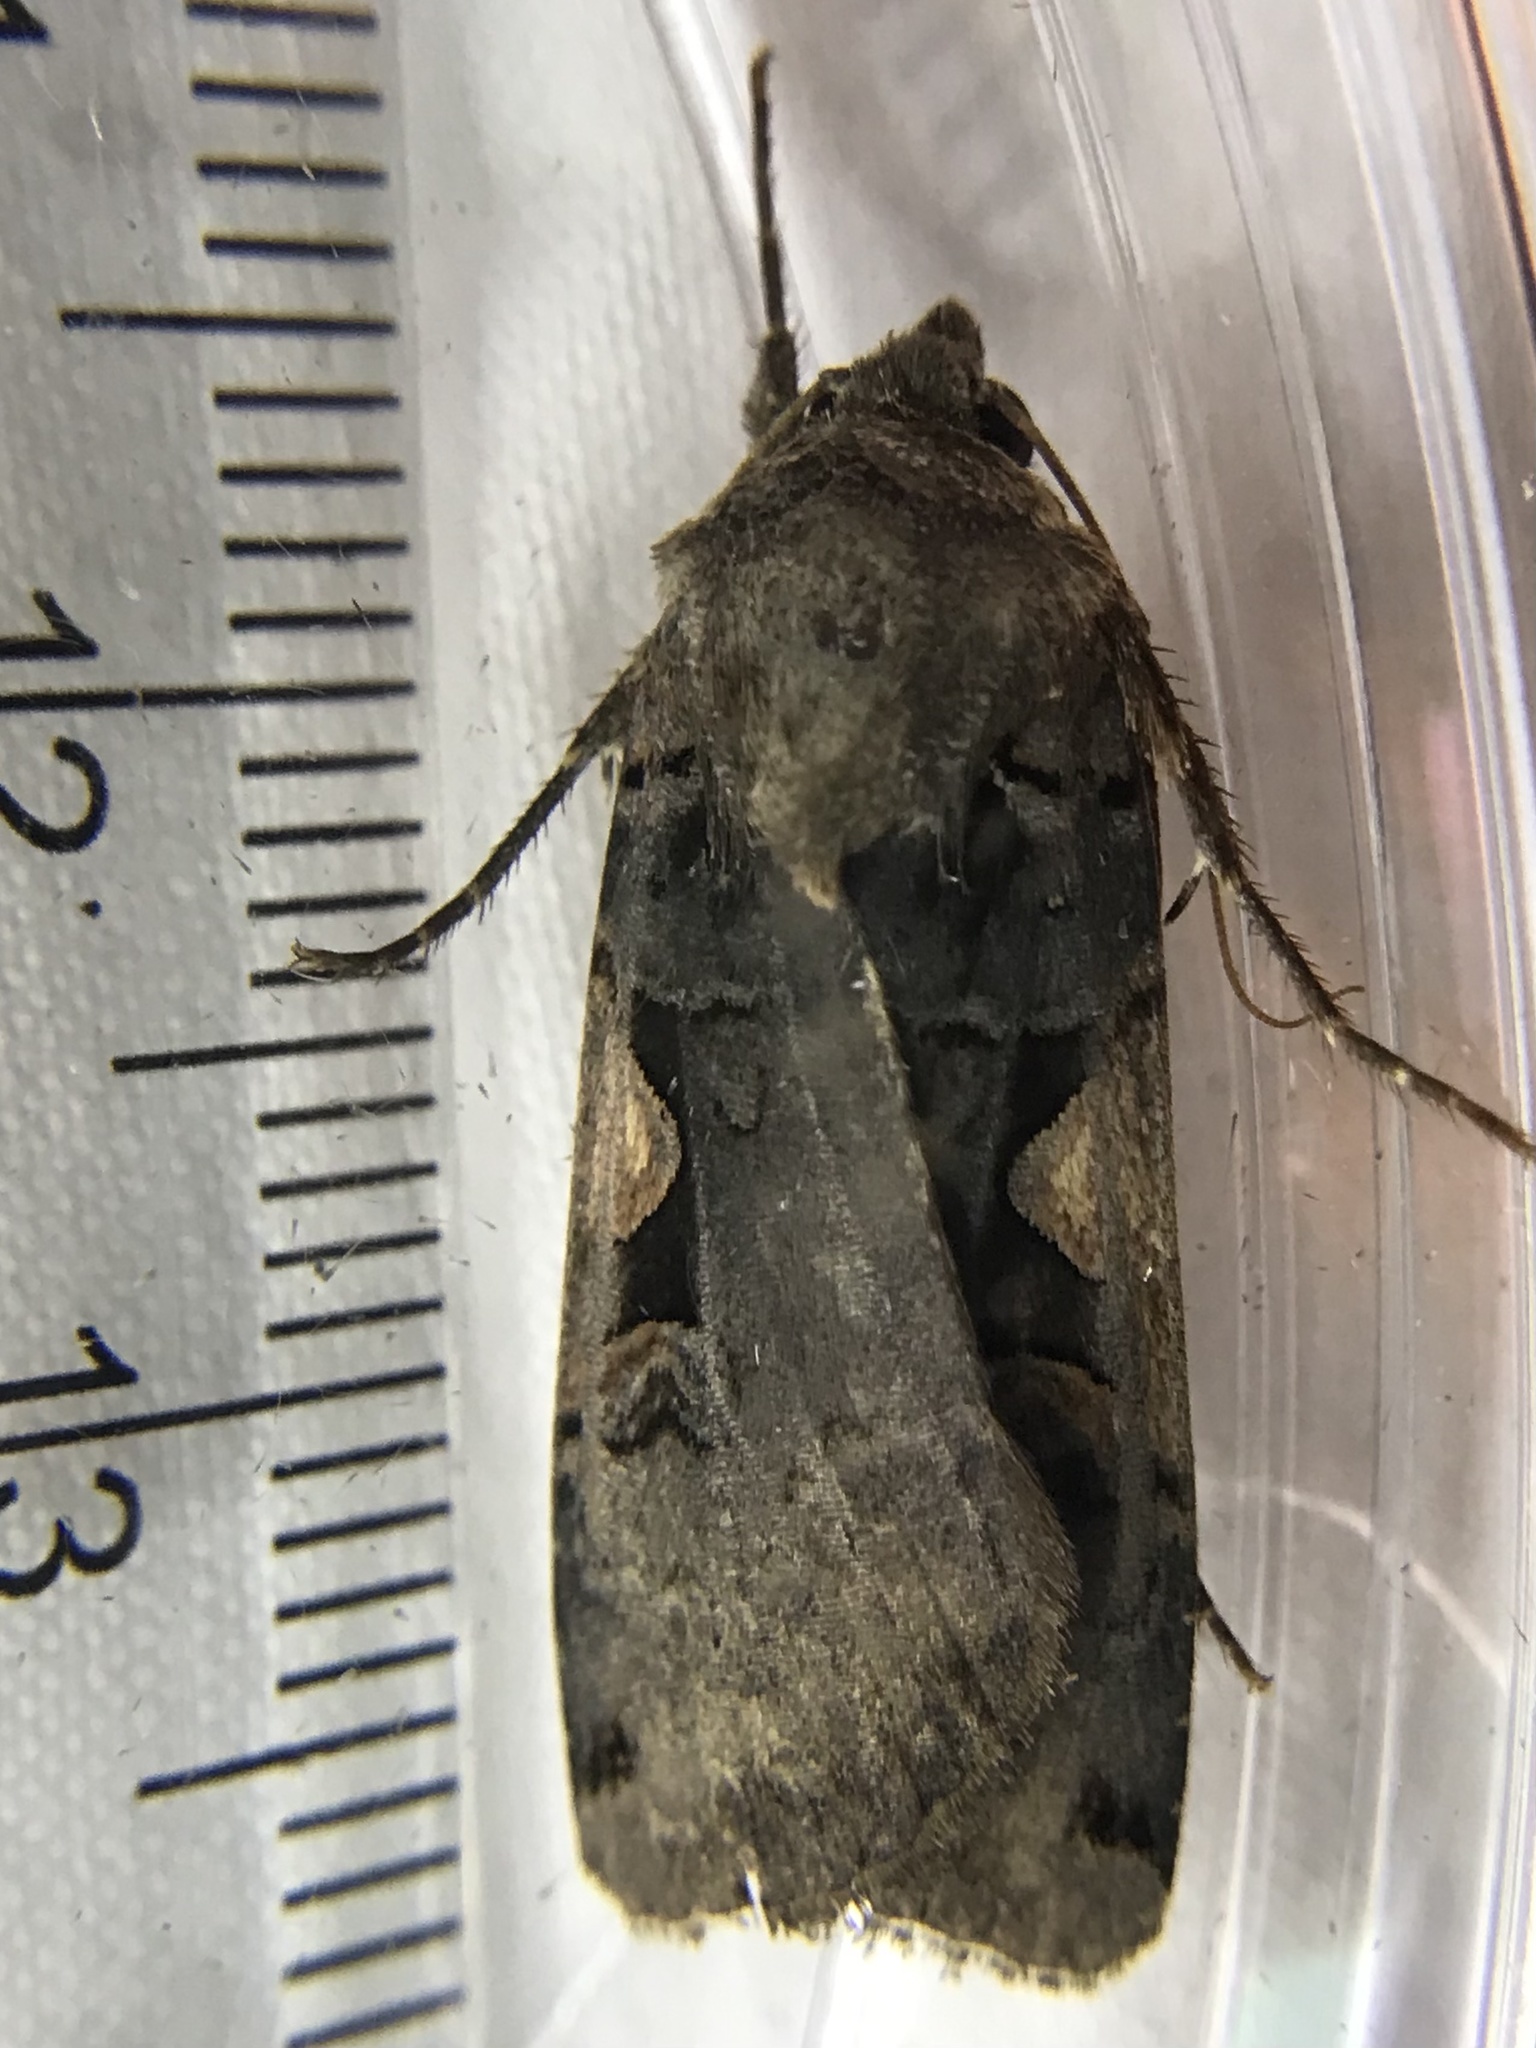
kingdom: Animalia
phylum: Arthropoda
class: Insecta
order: Lepidoptera
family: Noctuidae
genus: Xestia
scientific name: Xestia
